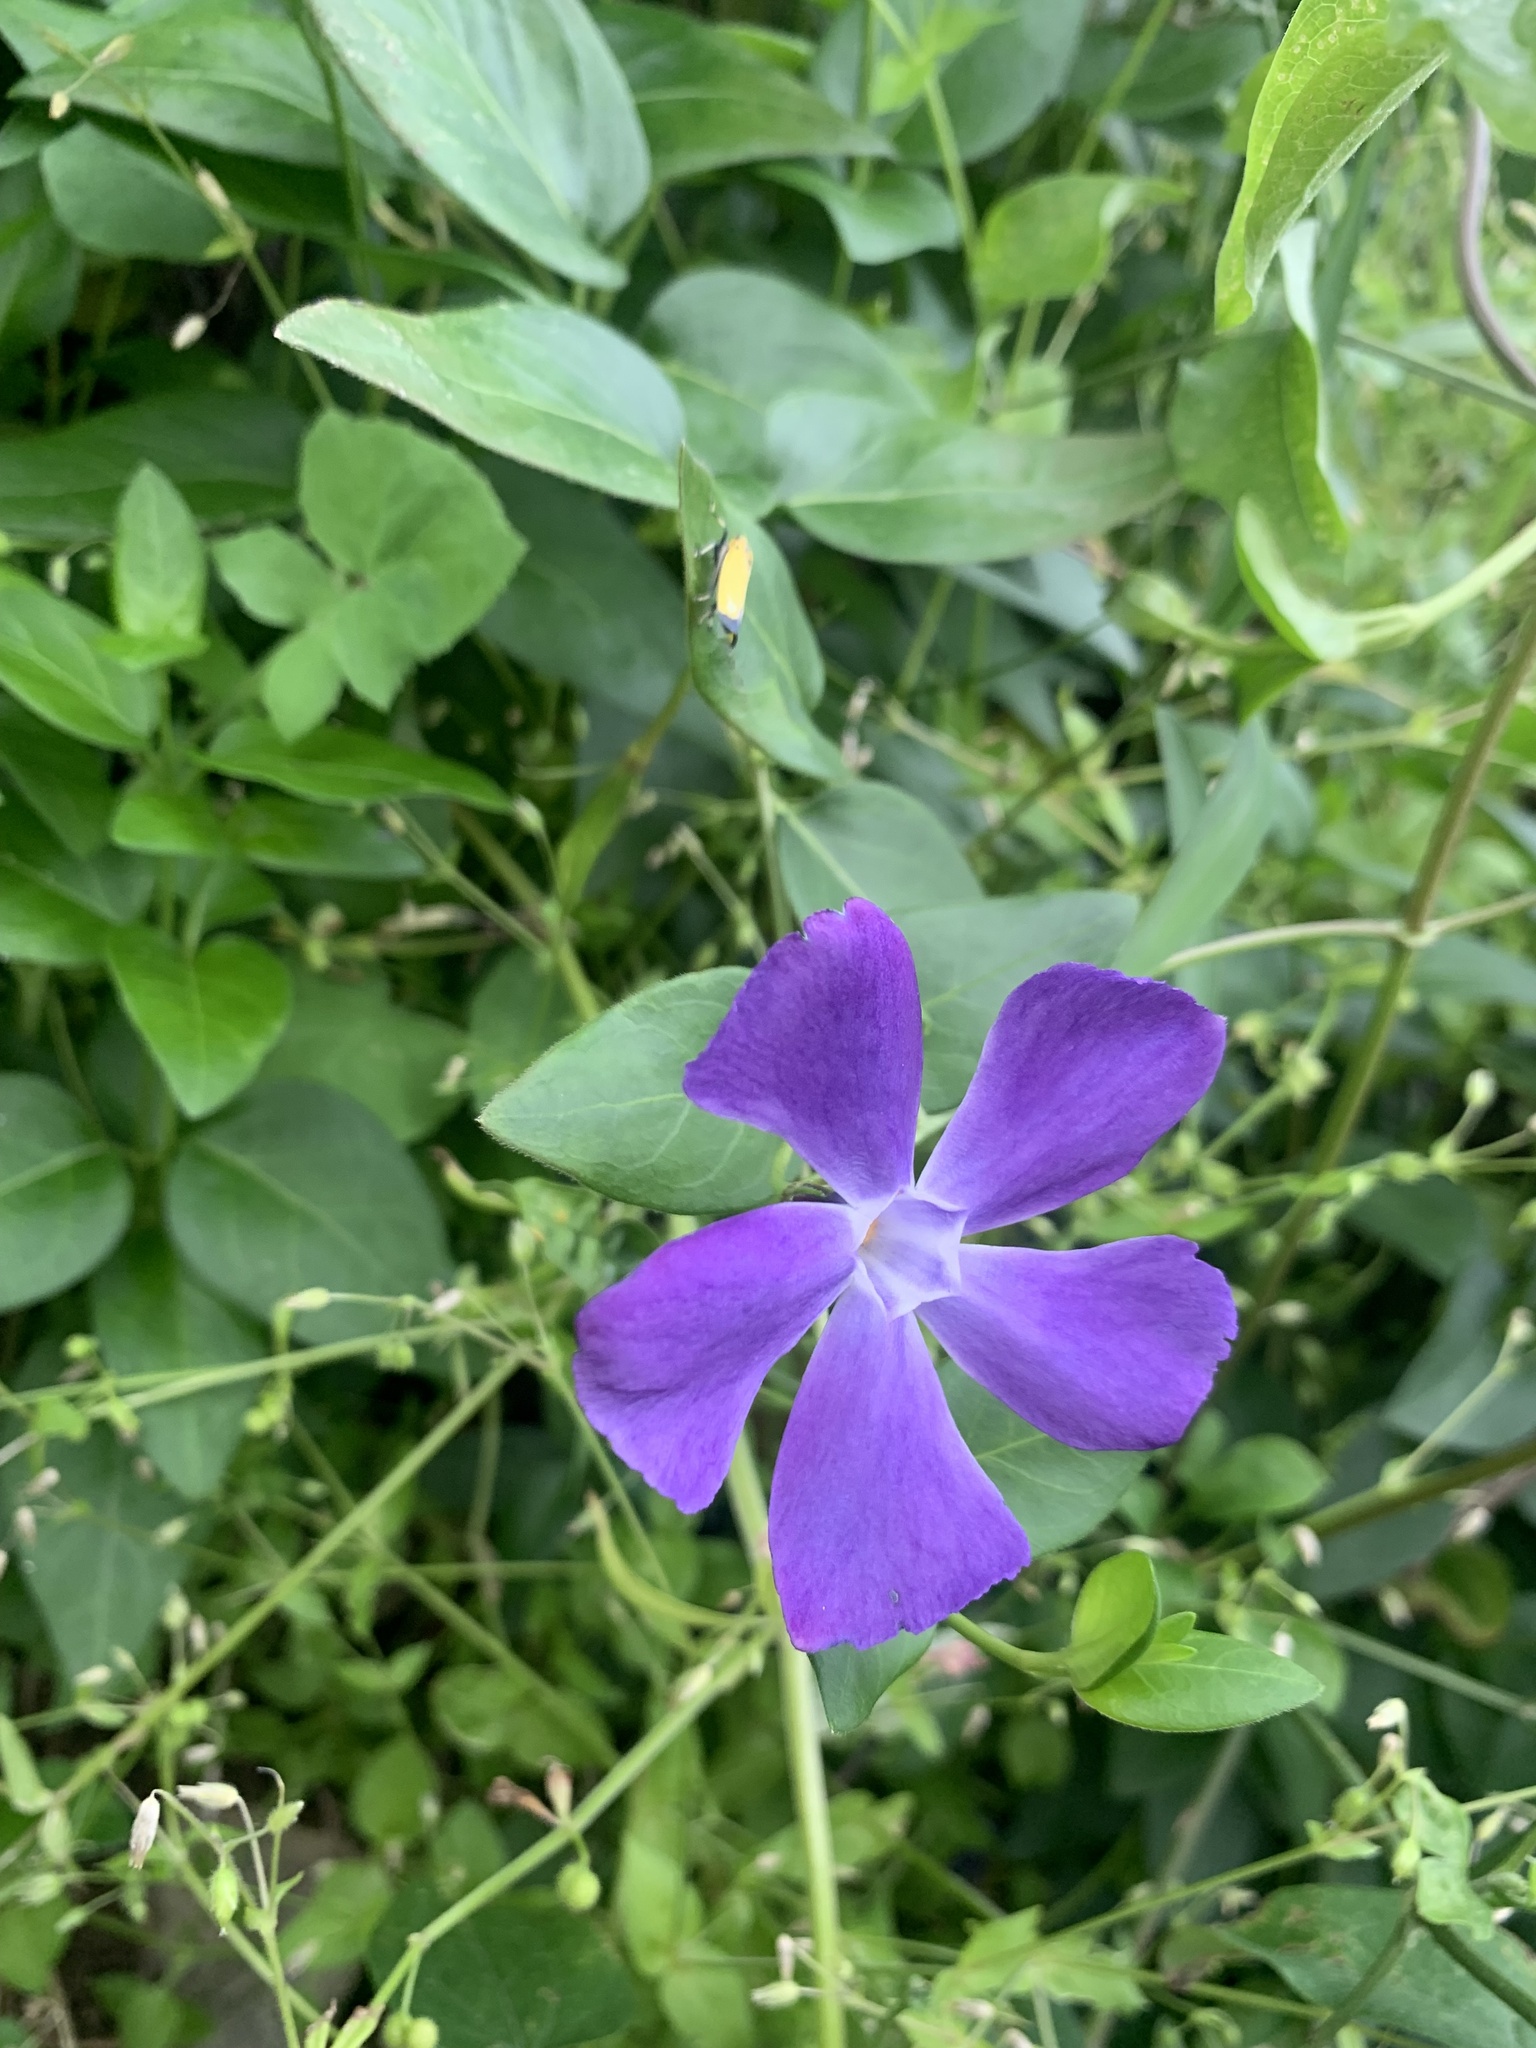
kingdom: Plantae
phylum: Tracheophyta
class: Magnoliopsida
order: Gentianales
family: Apocynaceae
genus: Vinca
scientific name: Vinca major
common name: Greater periwinkle
